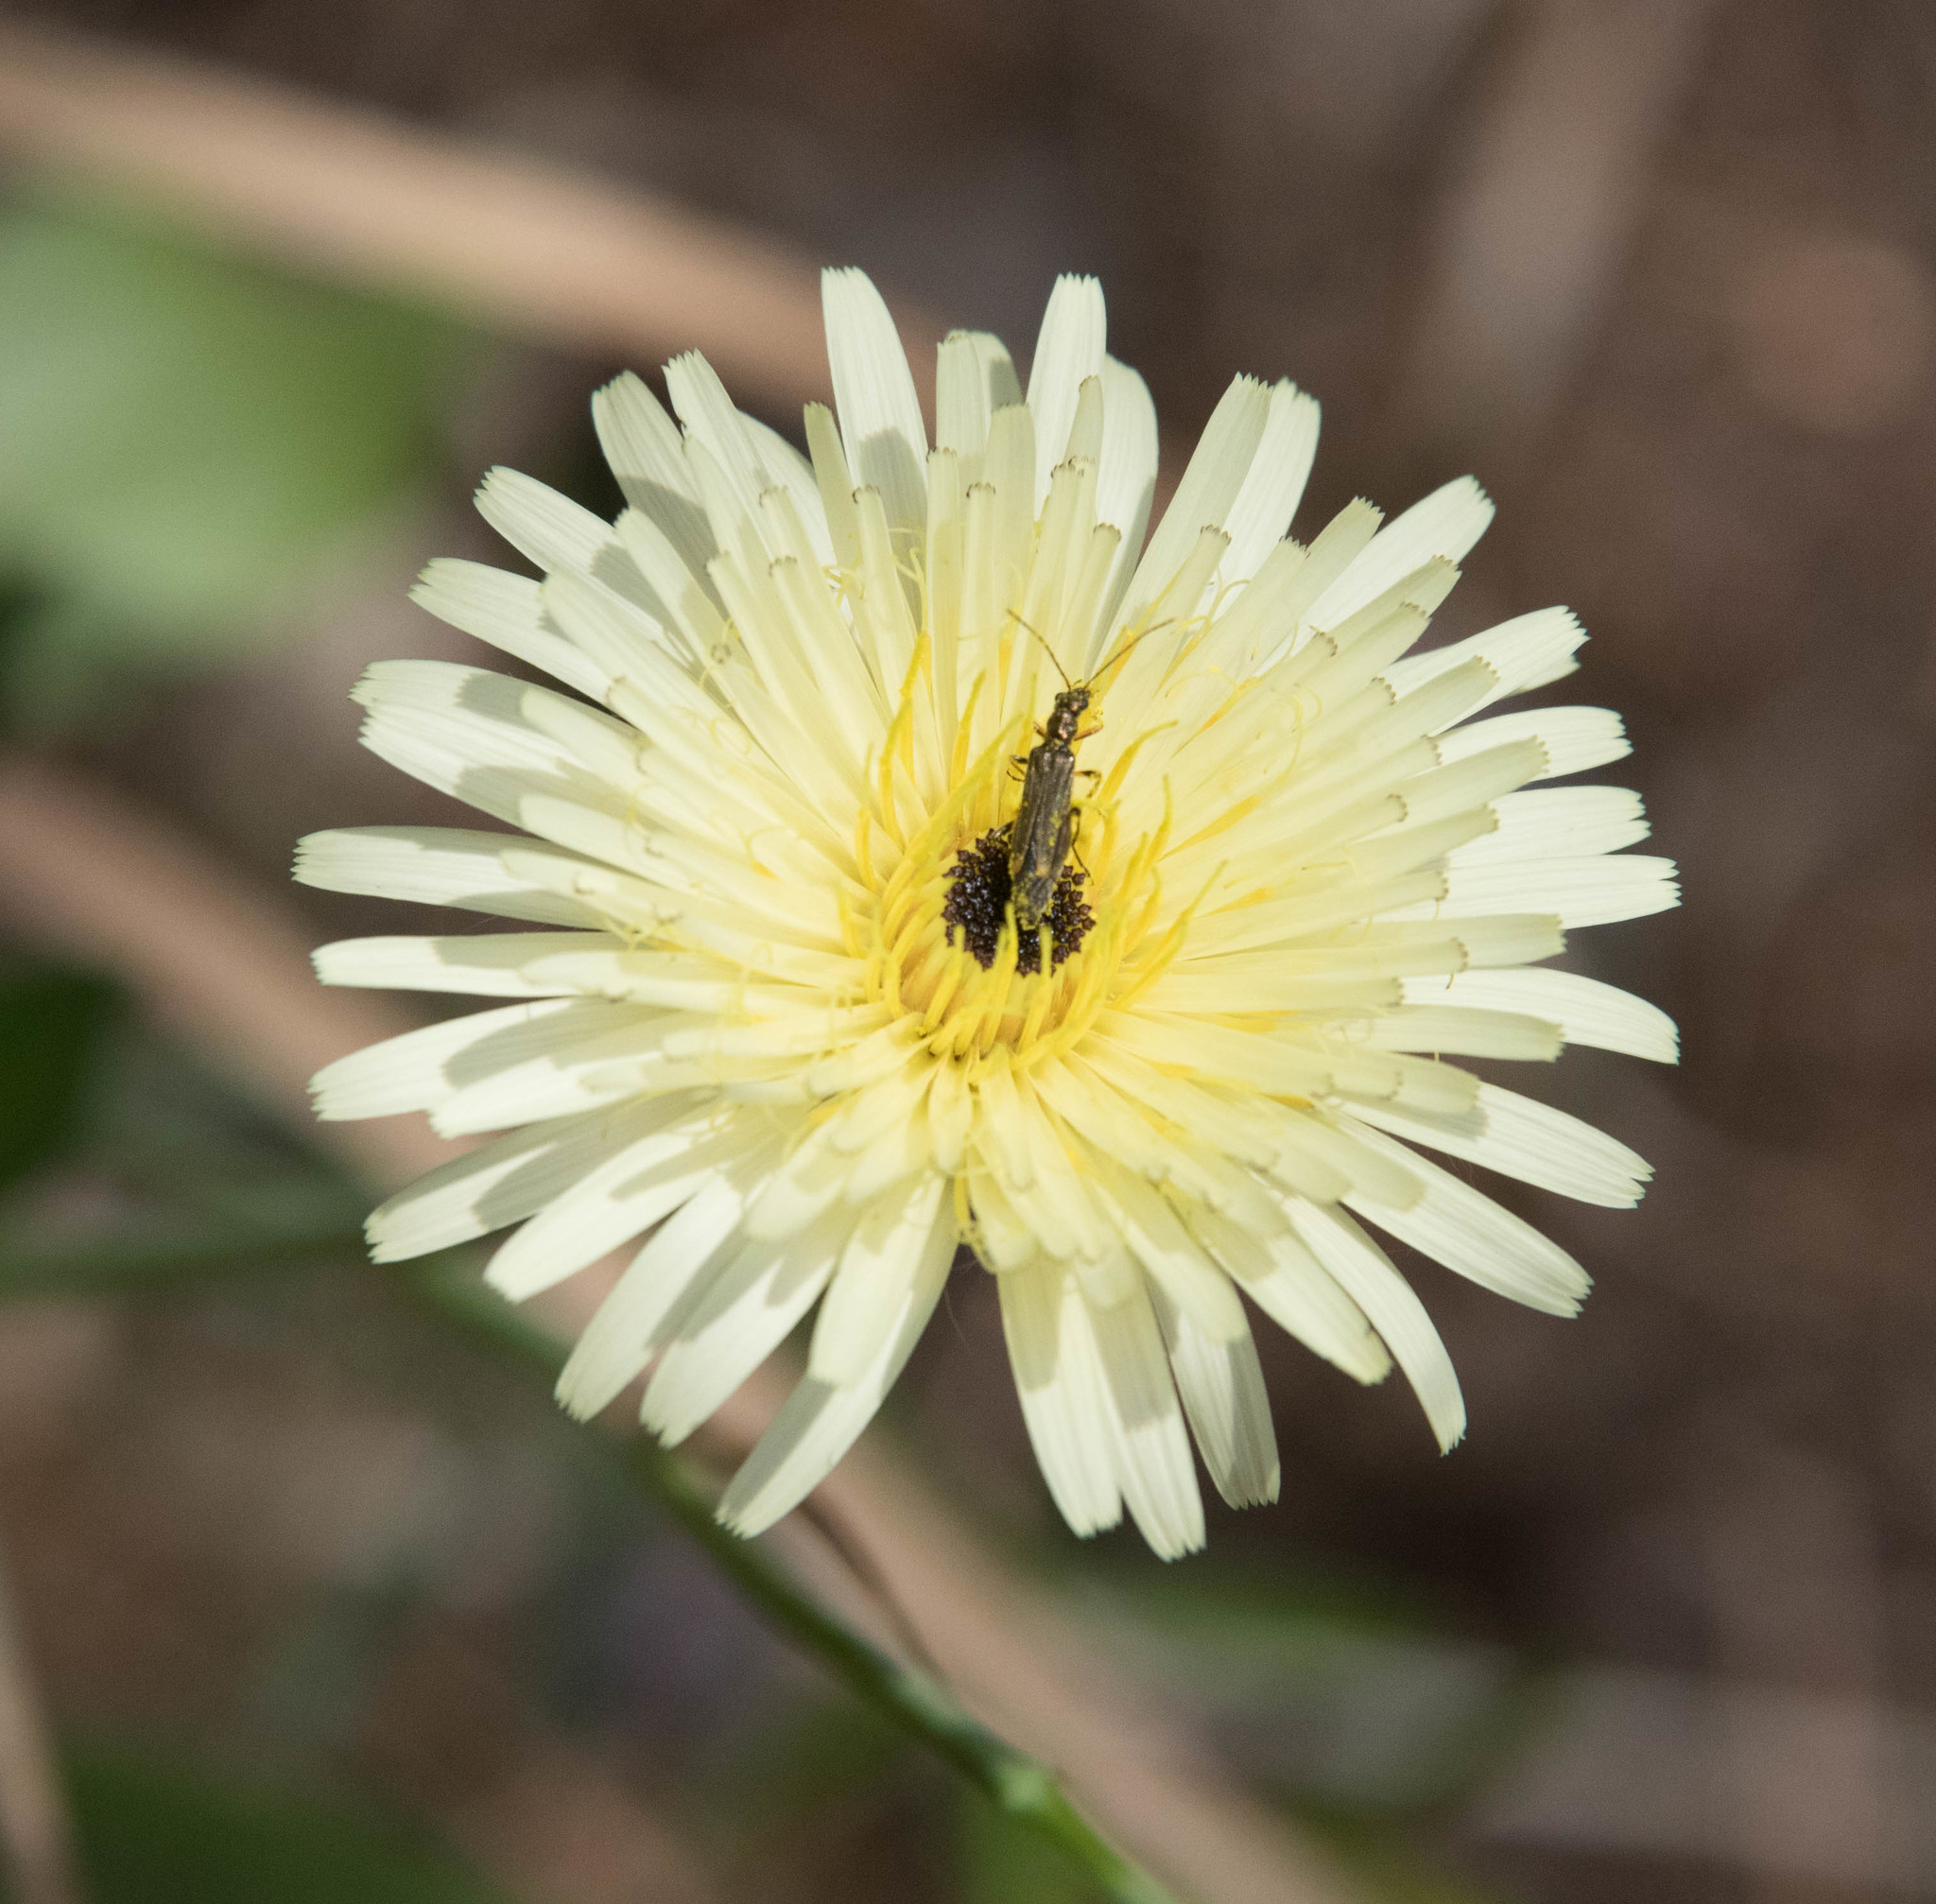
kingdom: Plantae
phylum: Tracheophyta
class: Magnoliopsida
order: Asterales
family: Asteraceae
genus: Urospermum
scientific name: Urospermum dalechampii
